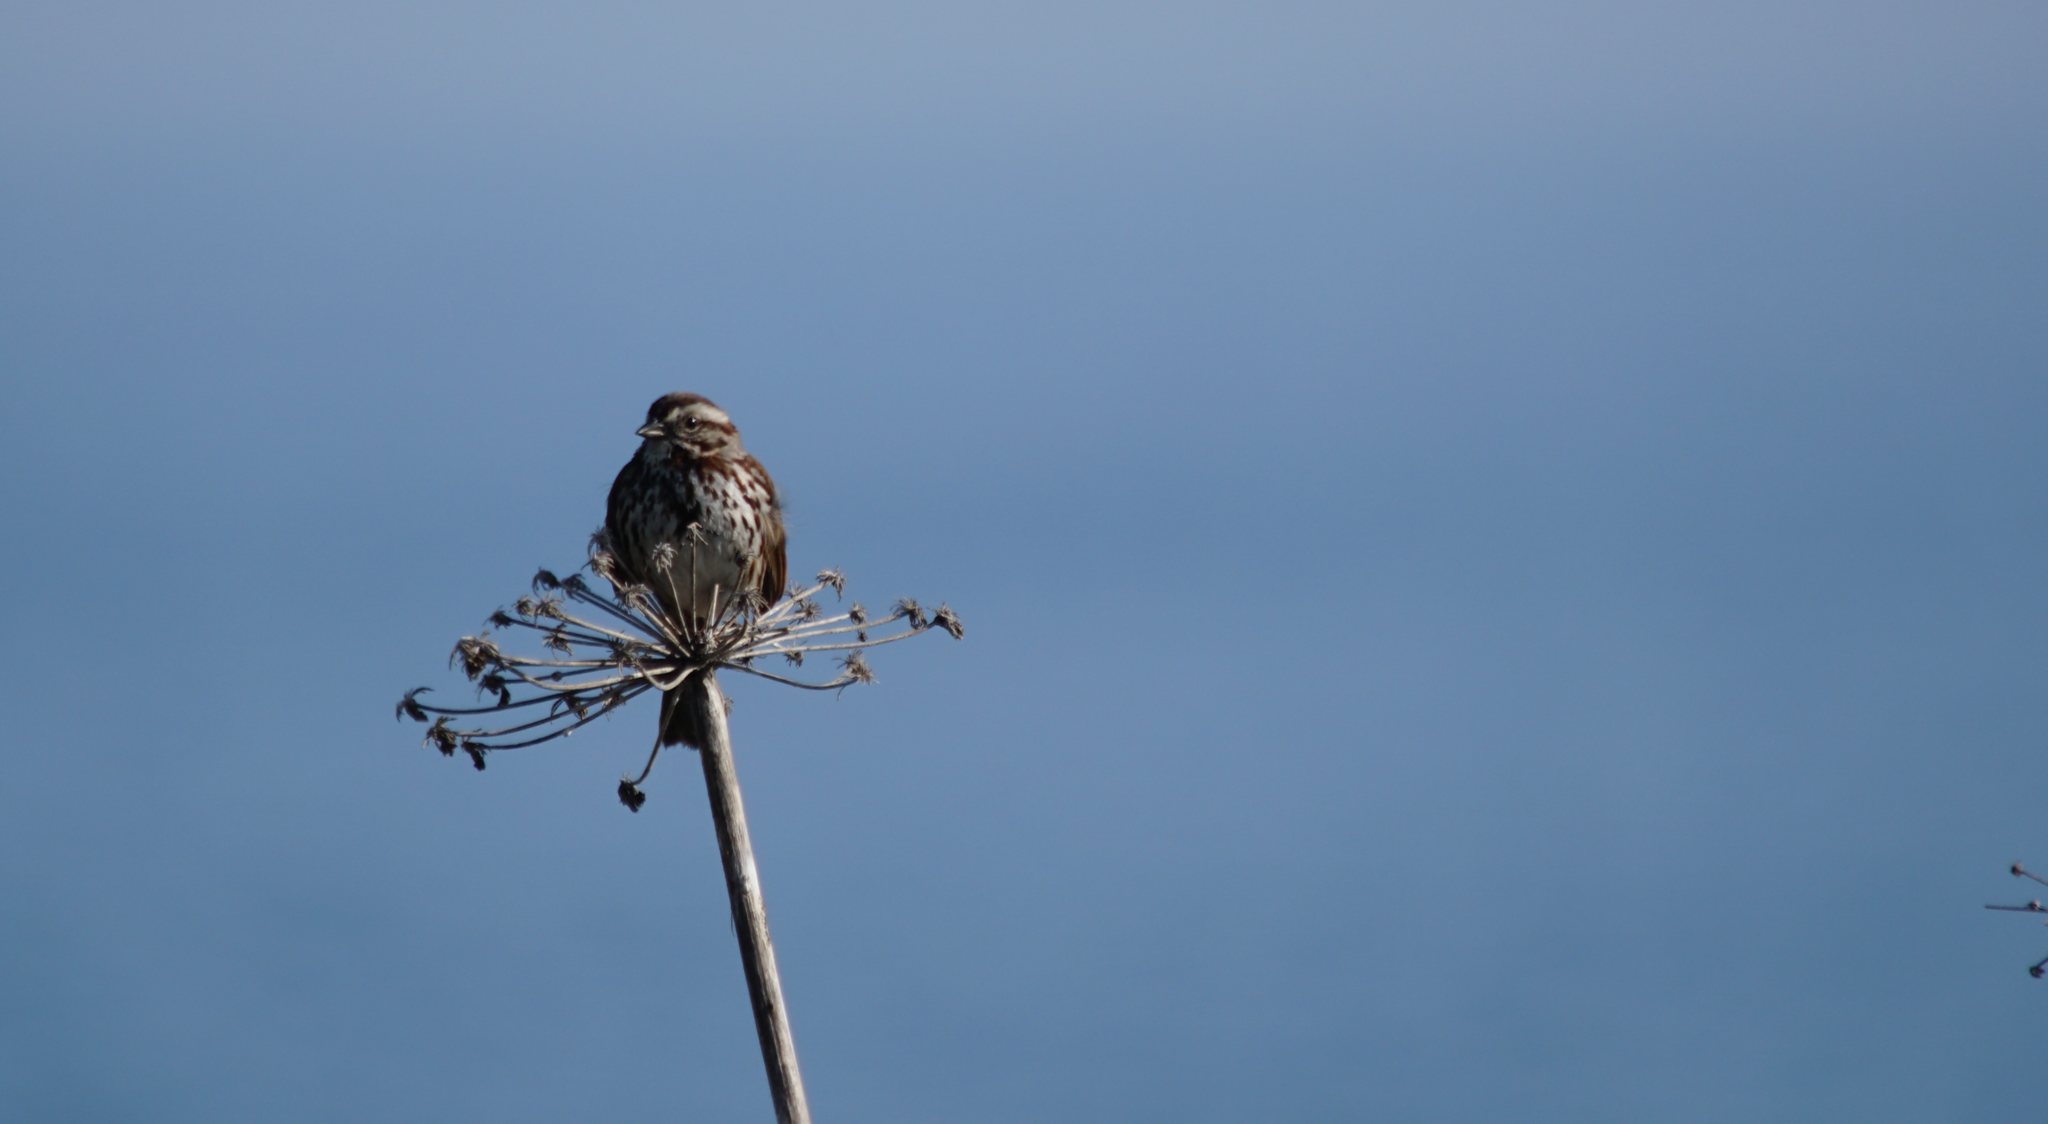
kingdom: Animalia
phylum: Chordata
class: Aves
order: Passeriformes
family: Passerellidae
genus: Melospiza
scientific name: Melospiza melodia
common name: Song sparrow
